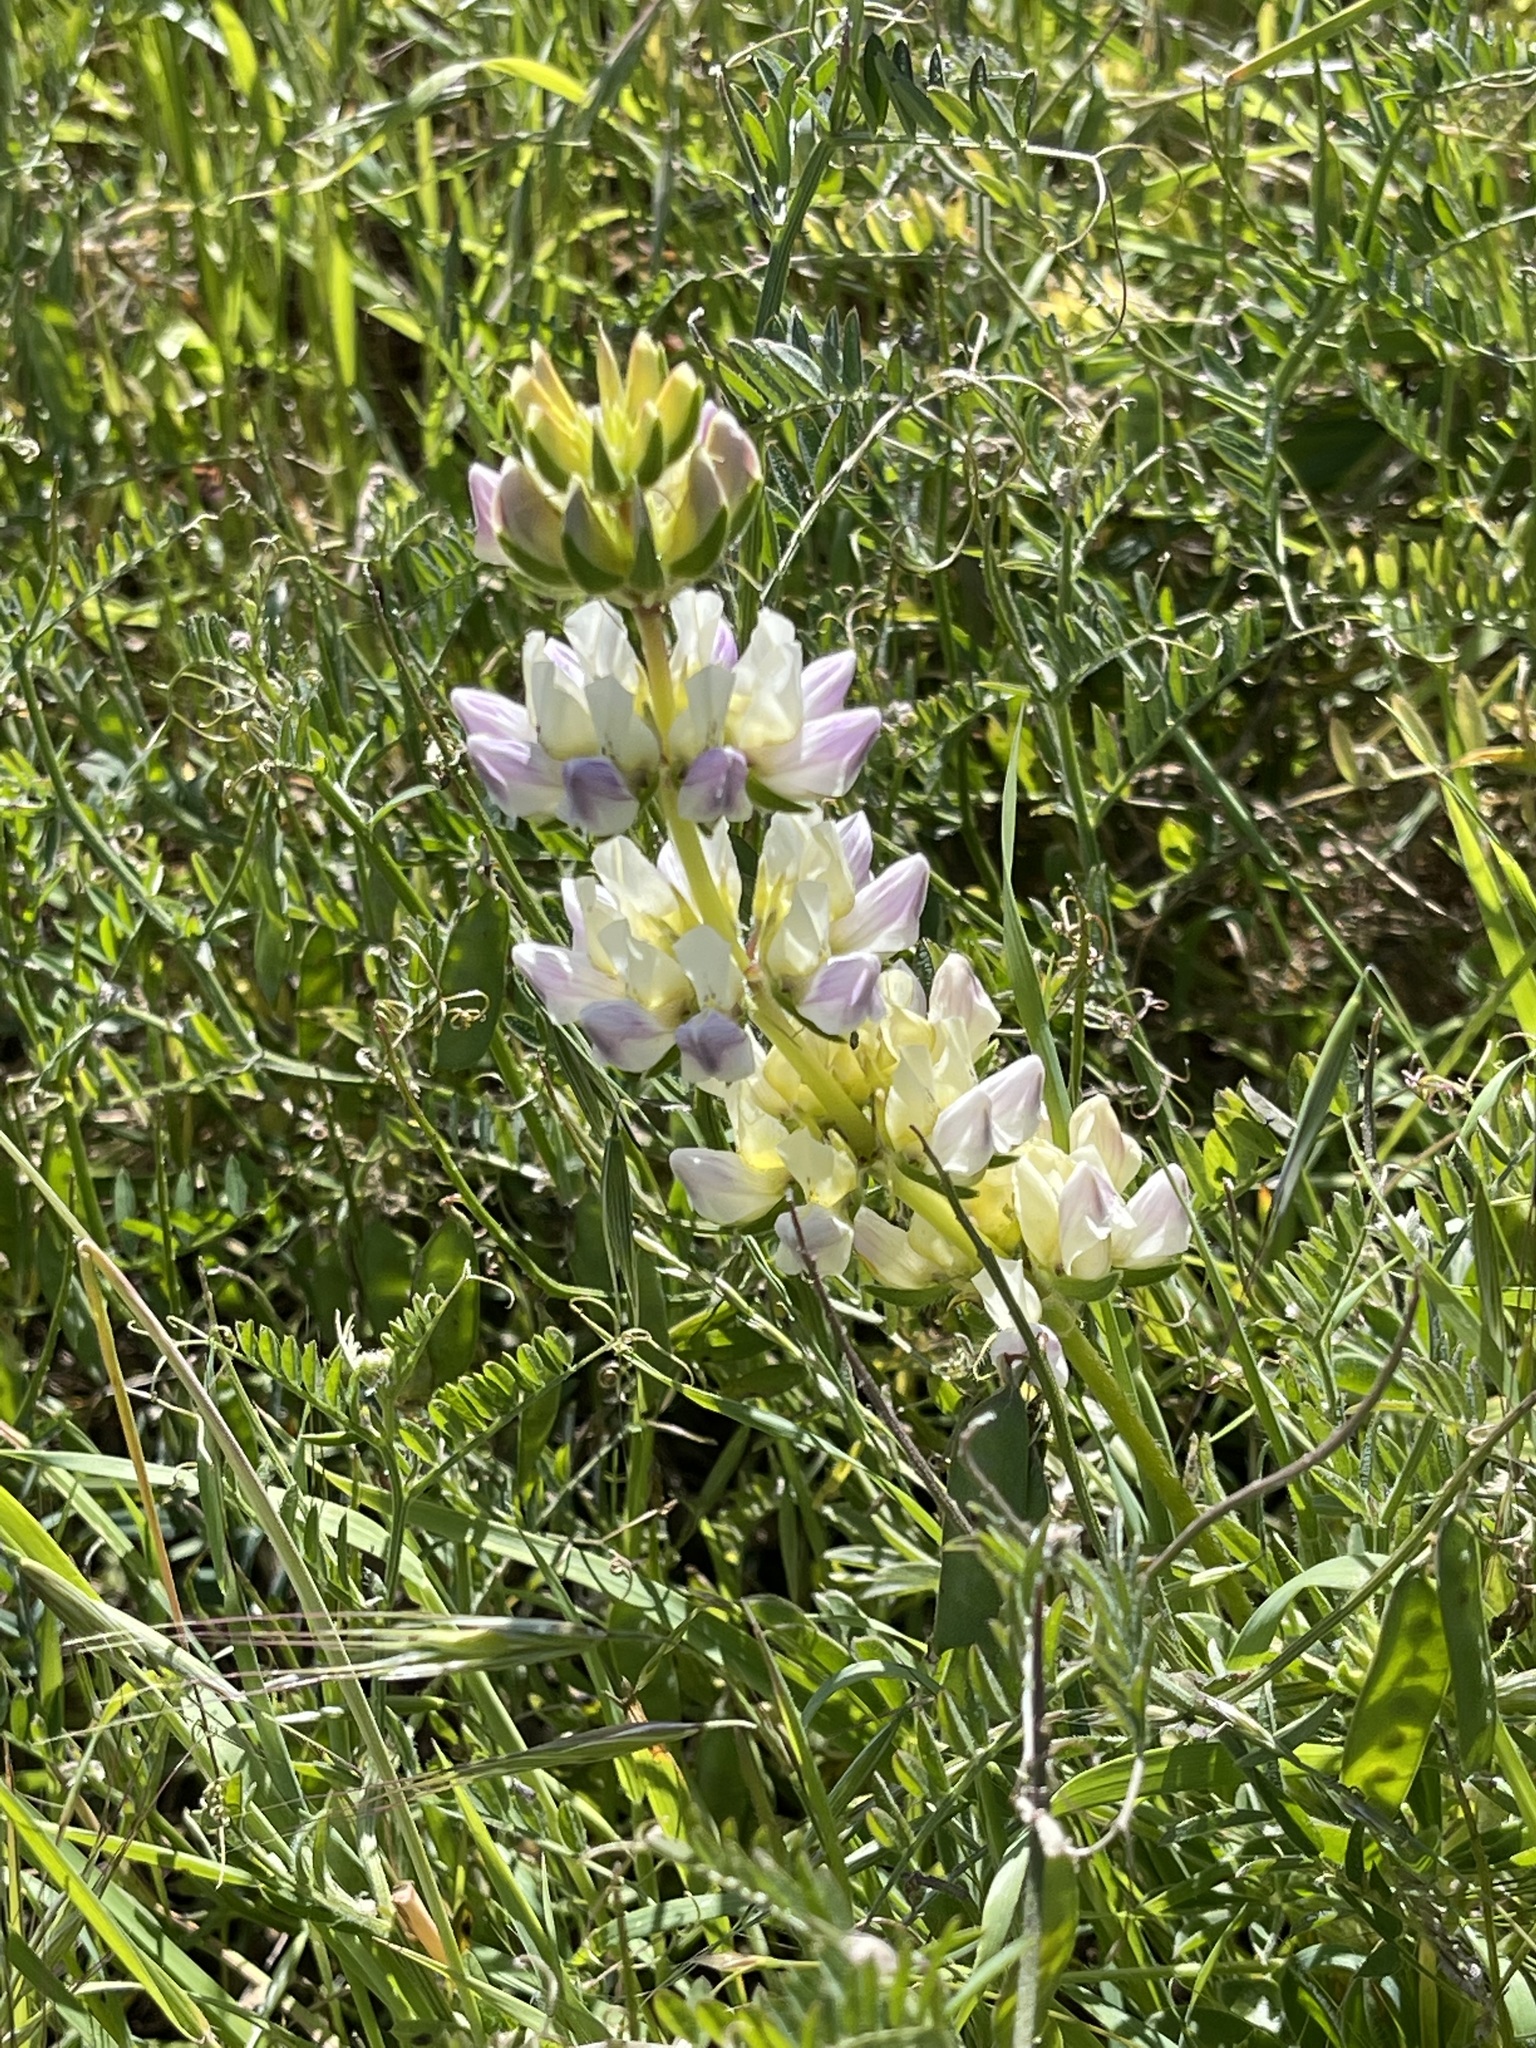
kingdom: Plantae
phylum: Tracheophyta
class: Magnoliopsida
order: Fabales
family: Fabaceae
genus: Lupinus
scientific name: Lupinus microcarpus
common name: Chick lupine
